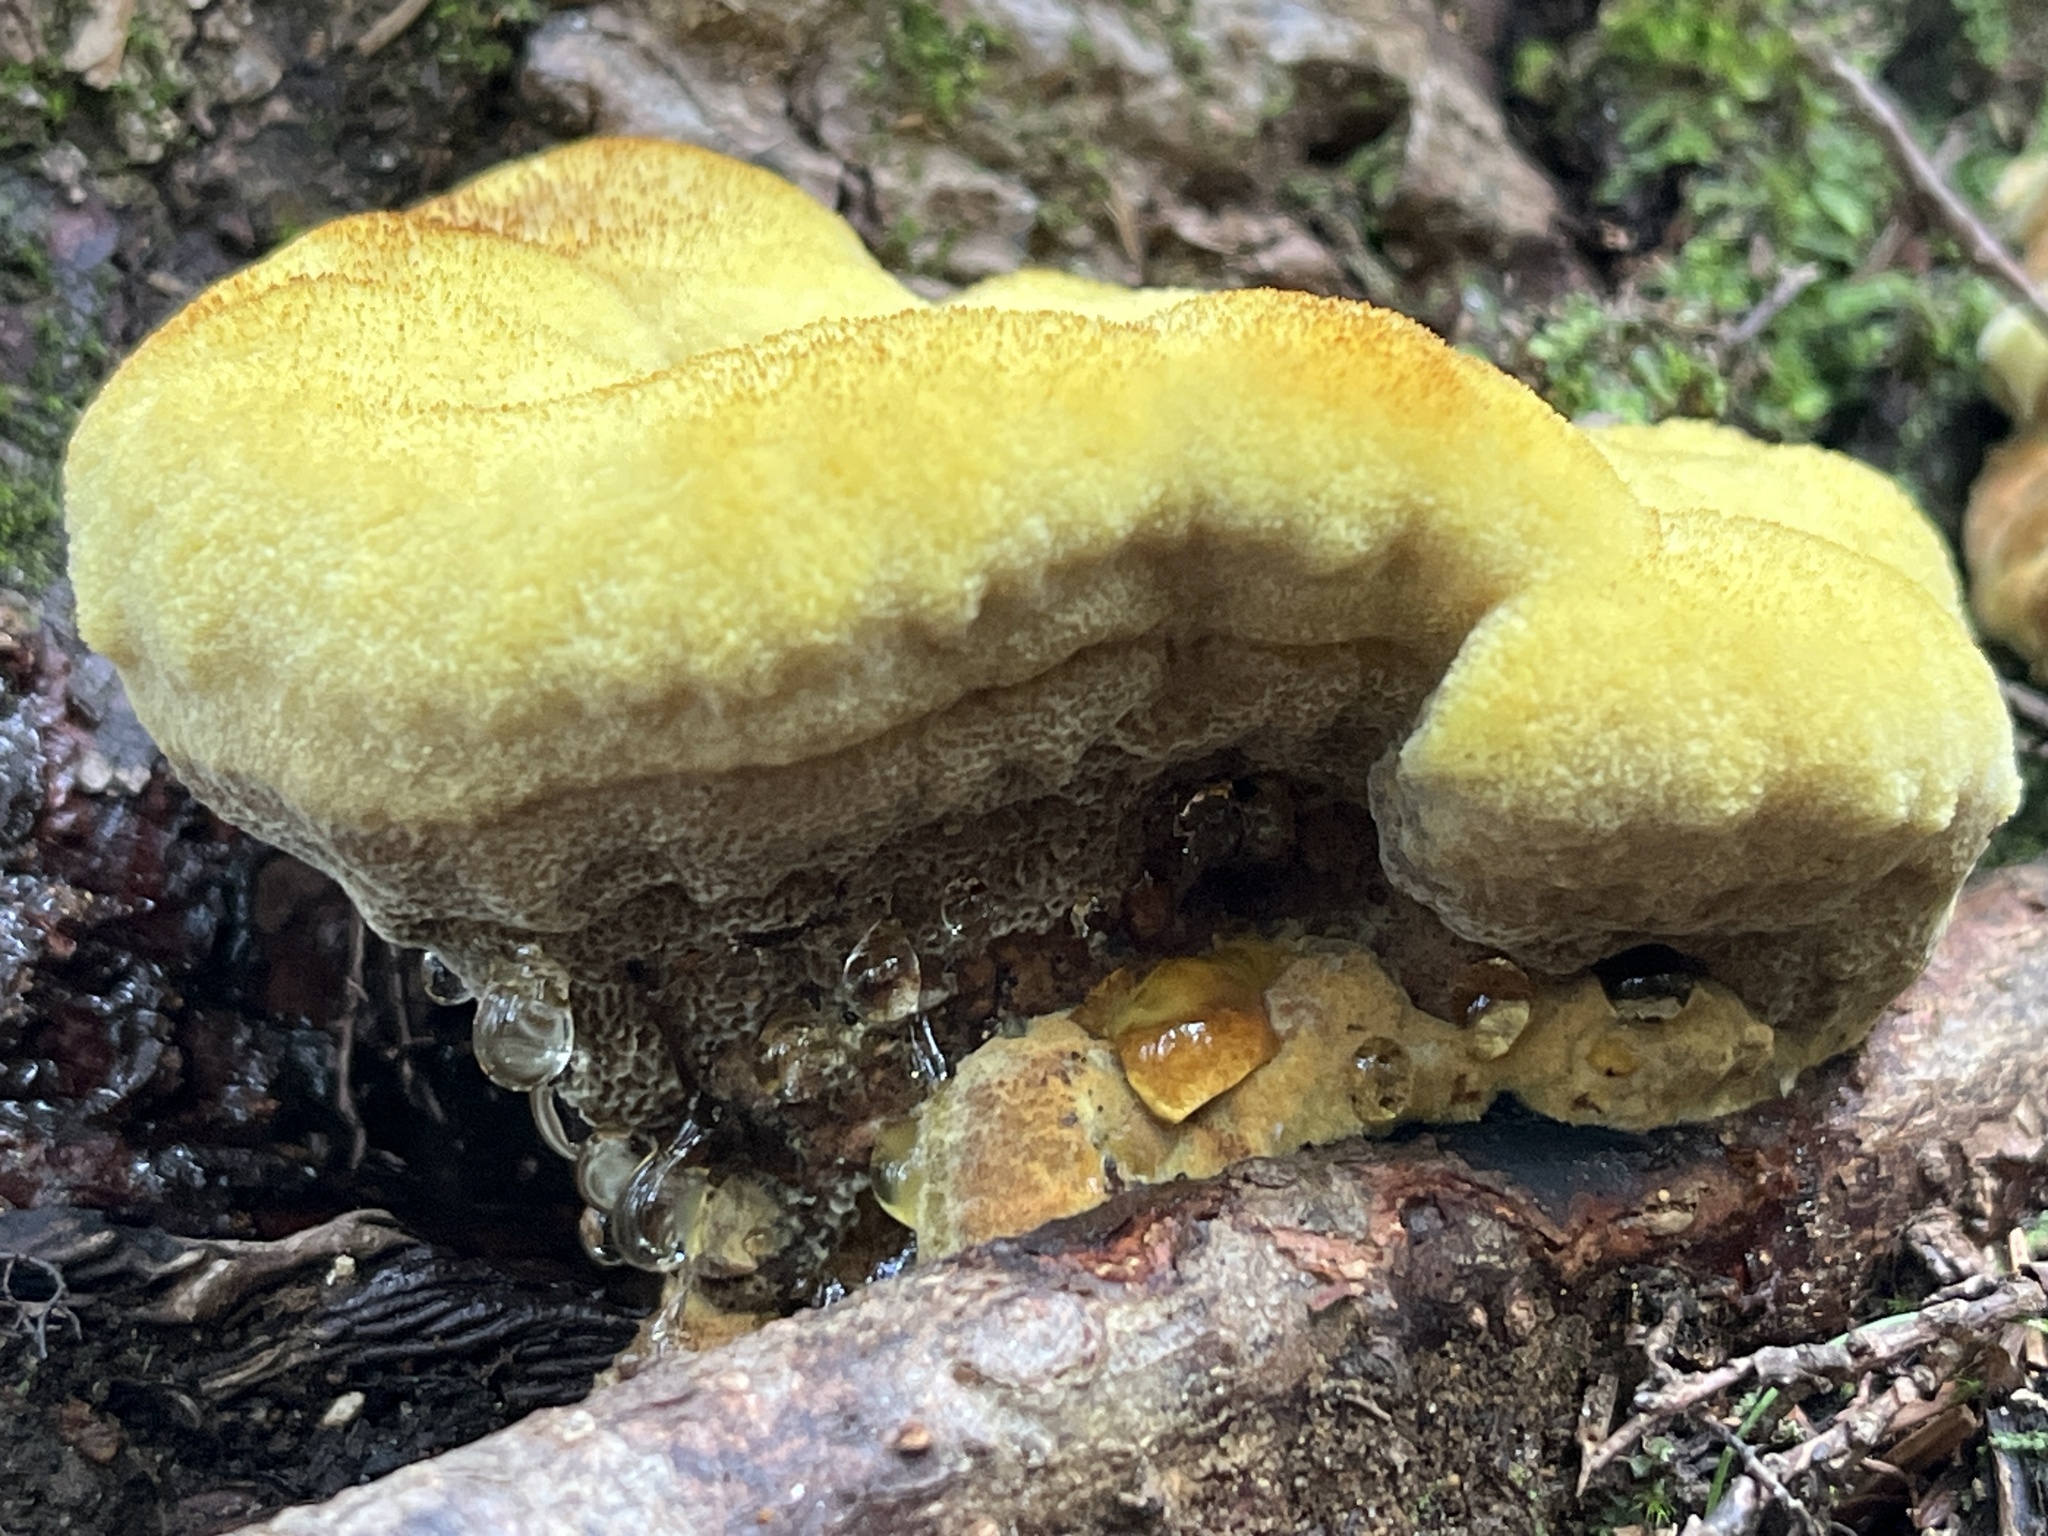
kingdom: Fungi
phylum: Basidiomycota
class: Agaricomycetes
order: Polyporales
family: Laetiporaceae
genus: Phaeolus
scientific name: Phaeolus schweinitzii
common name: Dyer's mazegill
